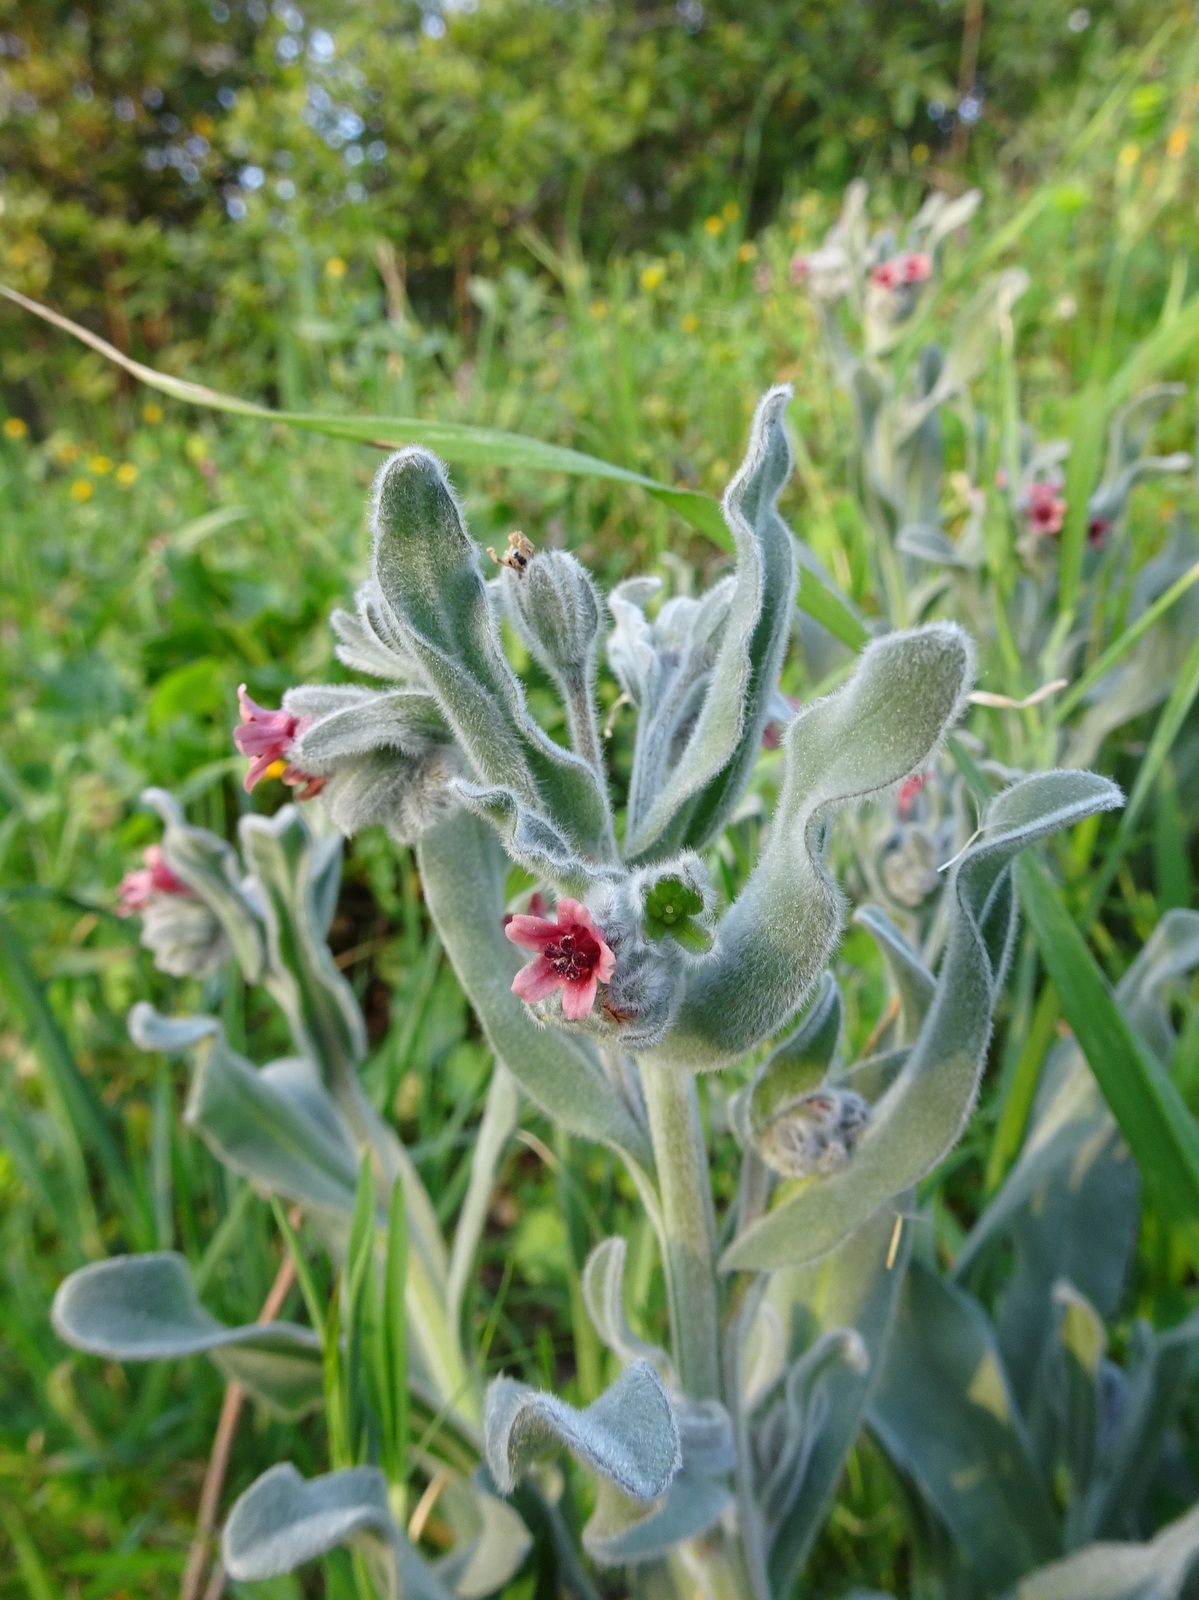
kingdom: Plantae
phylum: Tracheophyta
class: Magnoliopsida
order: Boraginales
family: Boraginaceae
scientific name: Boraginaceae
